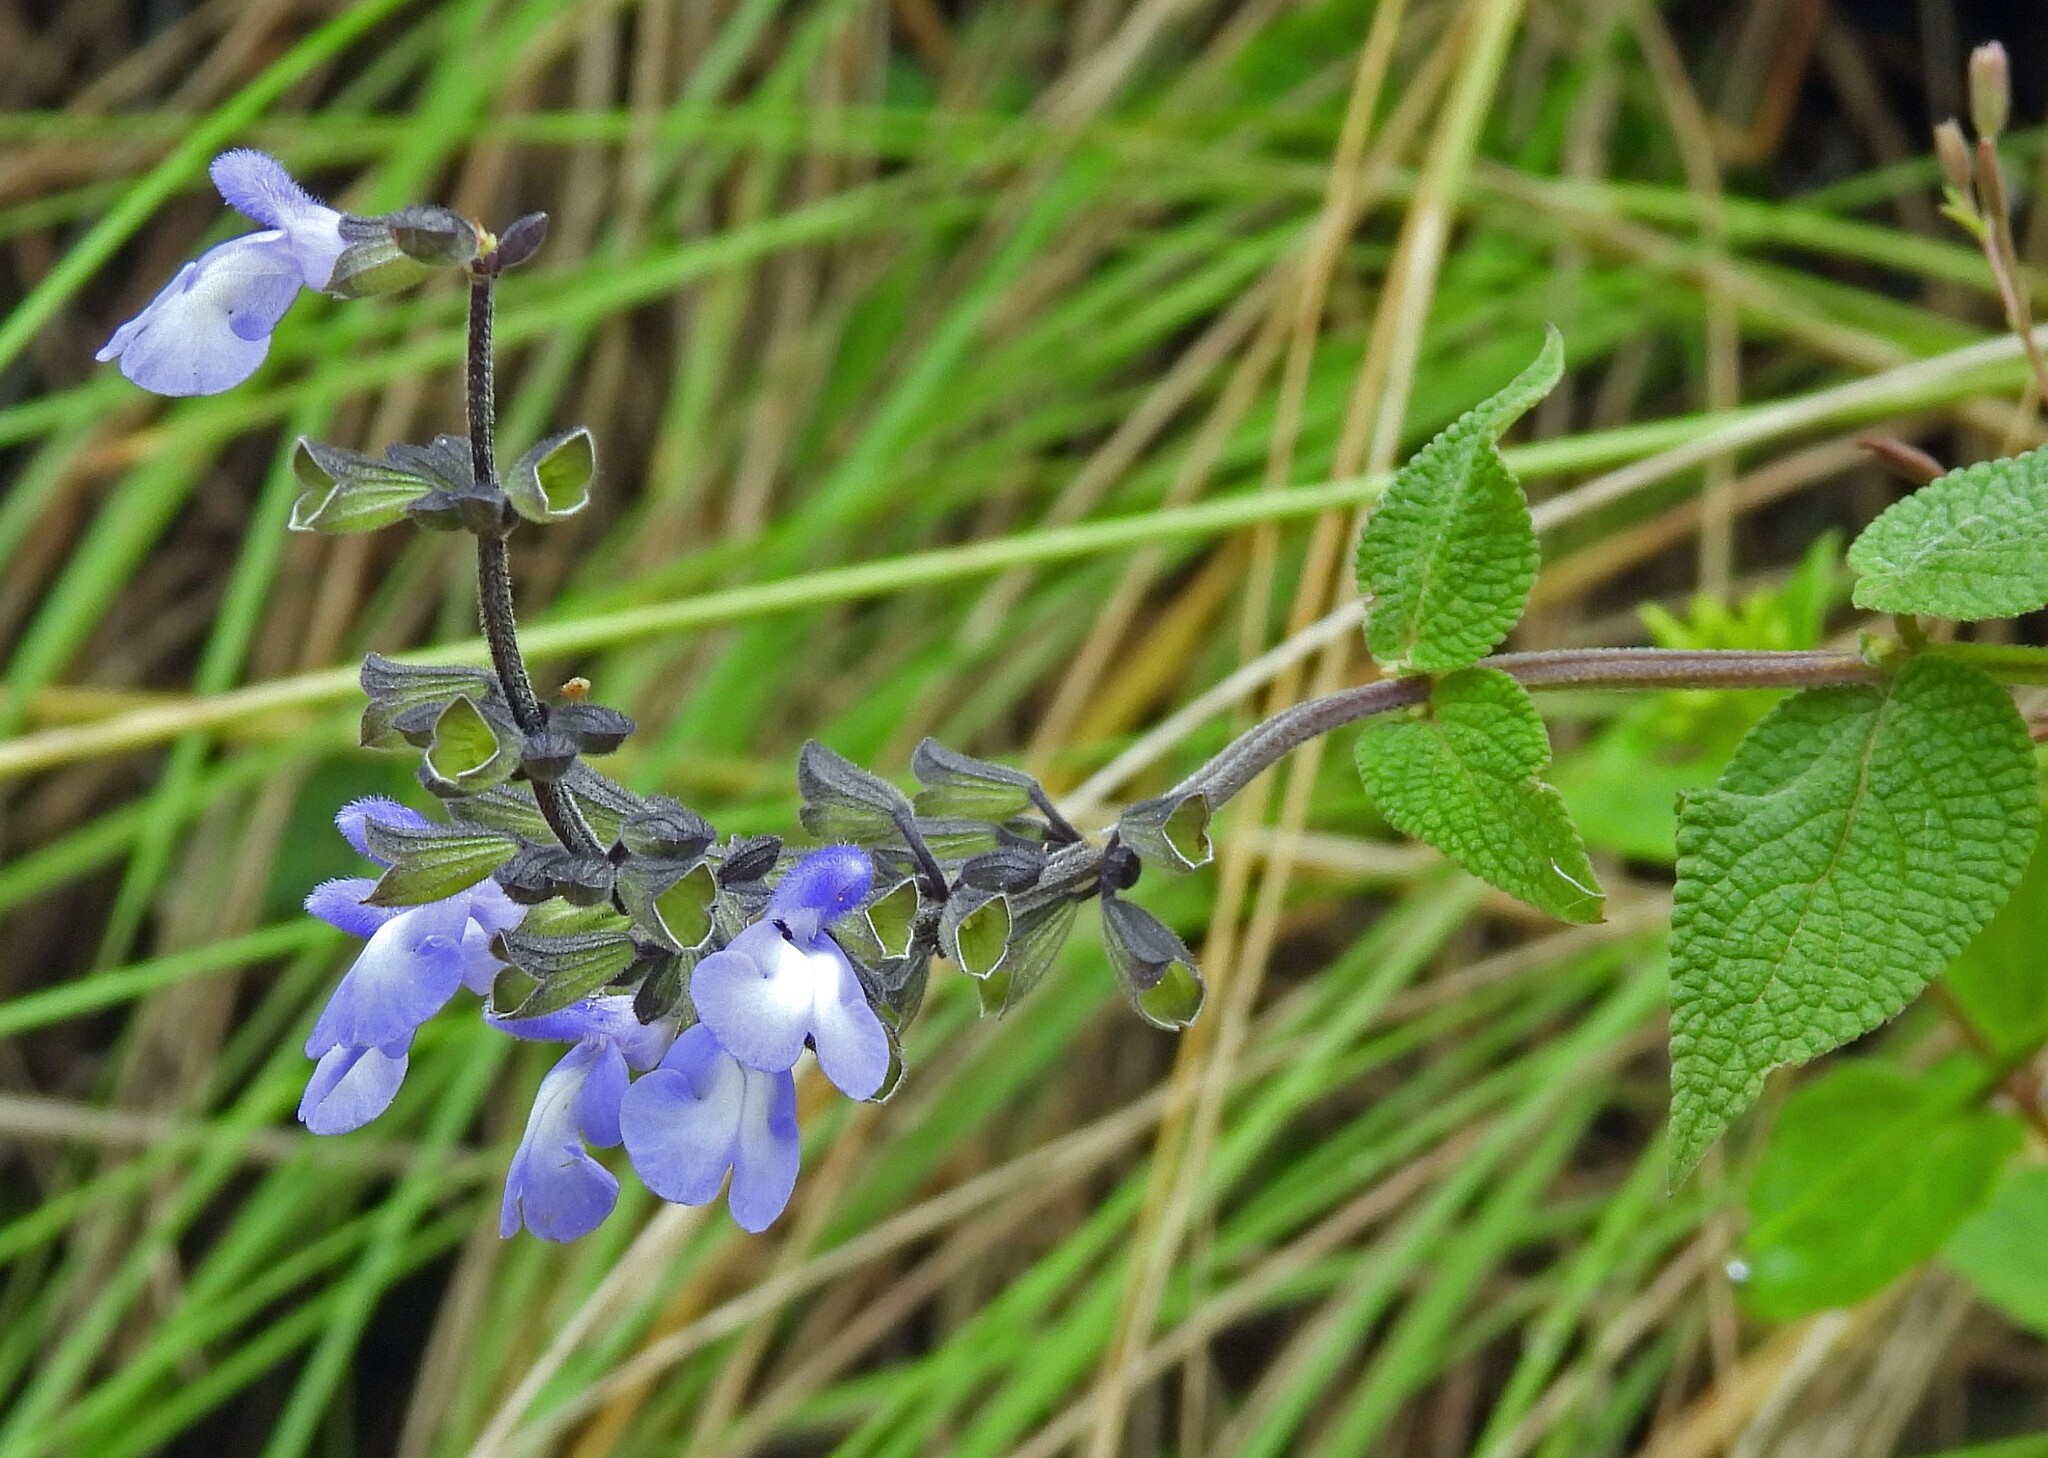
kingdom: Plantae
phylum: Tracheophyta
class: Magnoliopsida
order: Lamiales
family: Lamiaceae
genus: Salvia
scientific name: Salvia stachydifolia
